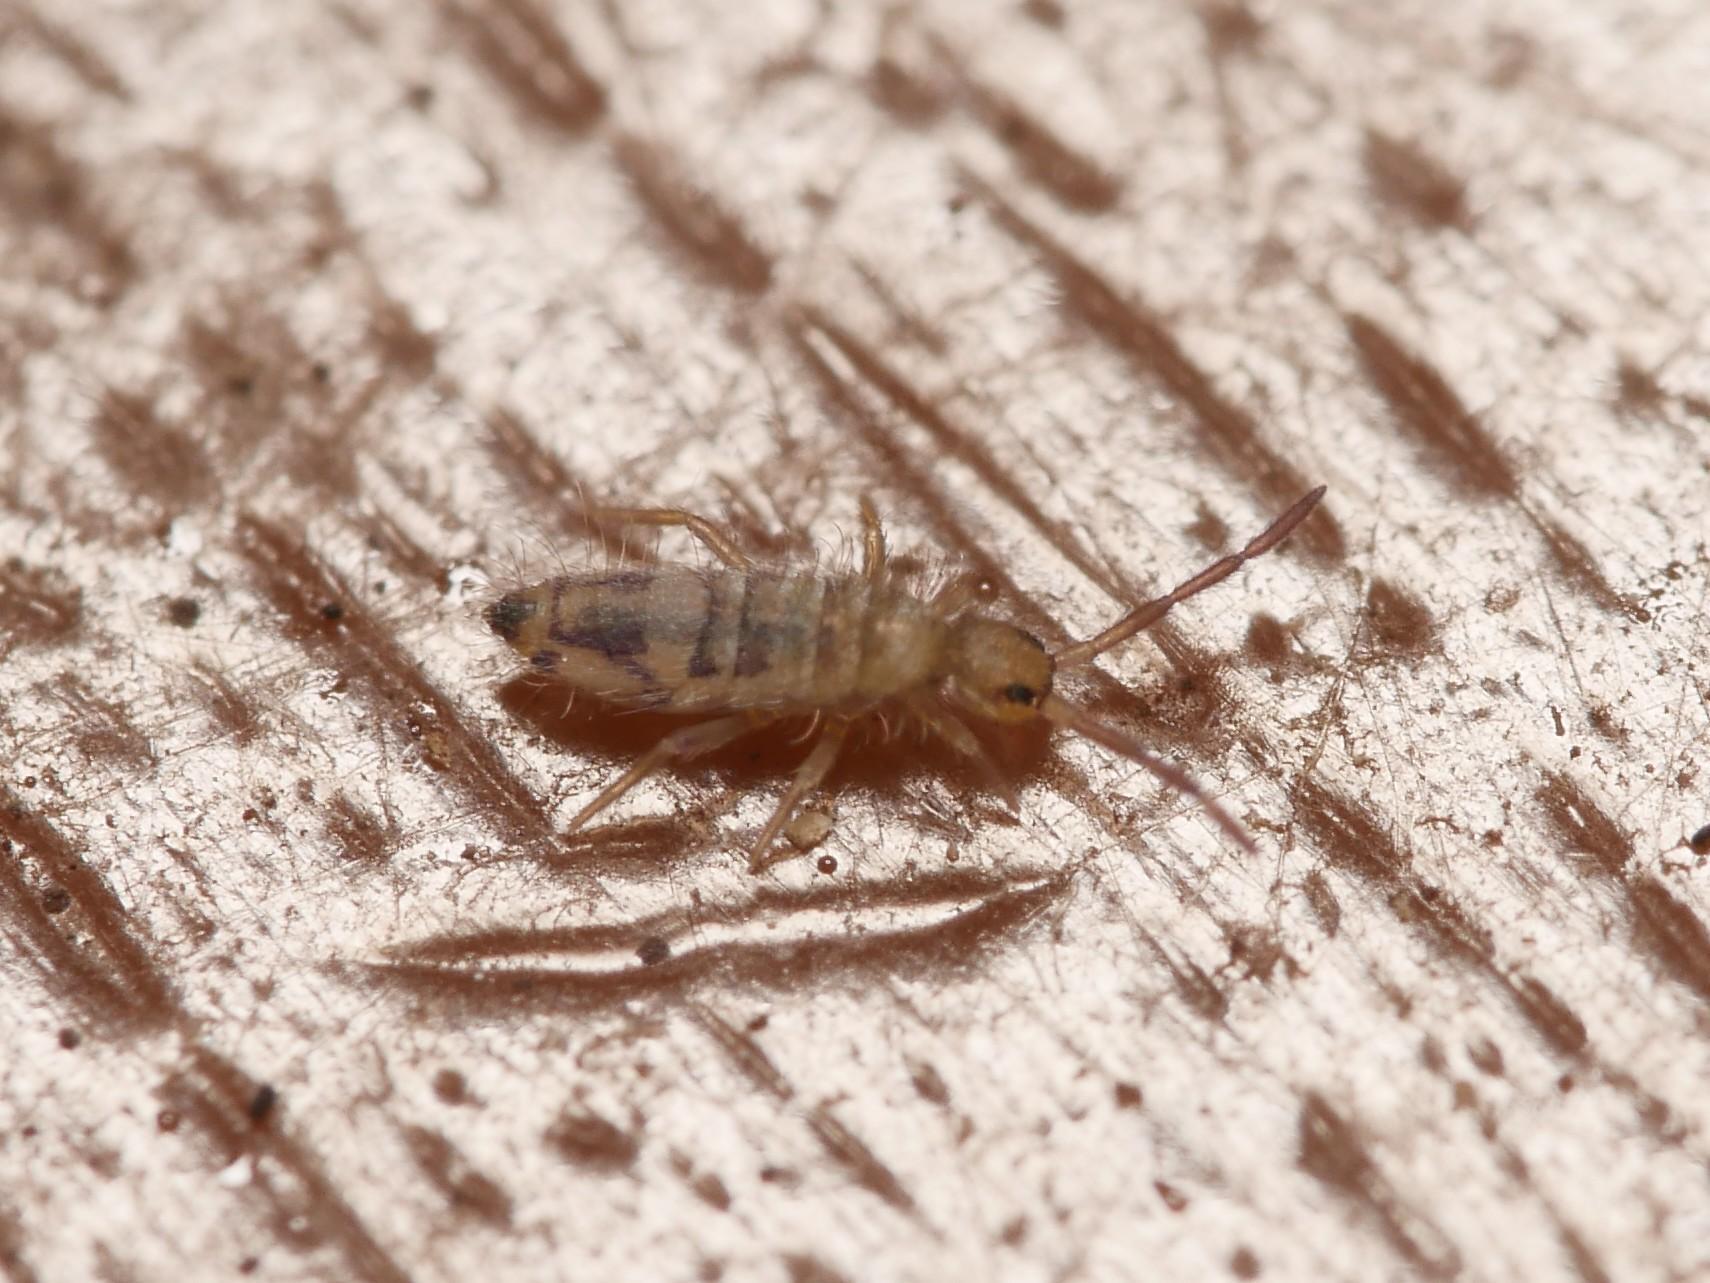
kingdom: Animalia
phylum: Arthropoda
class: Collembola
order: Entomobryomorpha
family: Entomobryidae
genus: Entomobrya
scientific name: Entomobrya nivalis
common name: Cosmopolitan springtail
